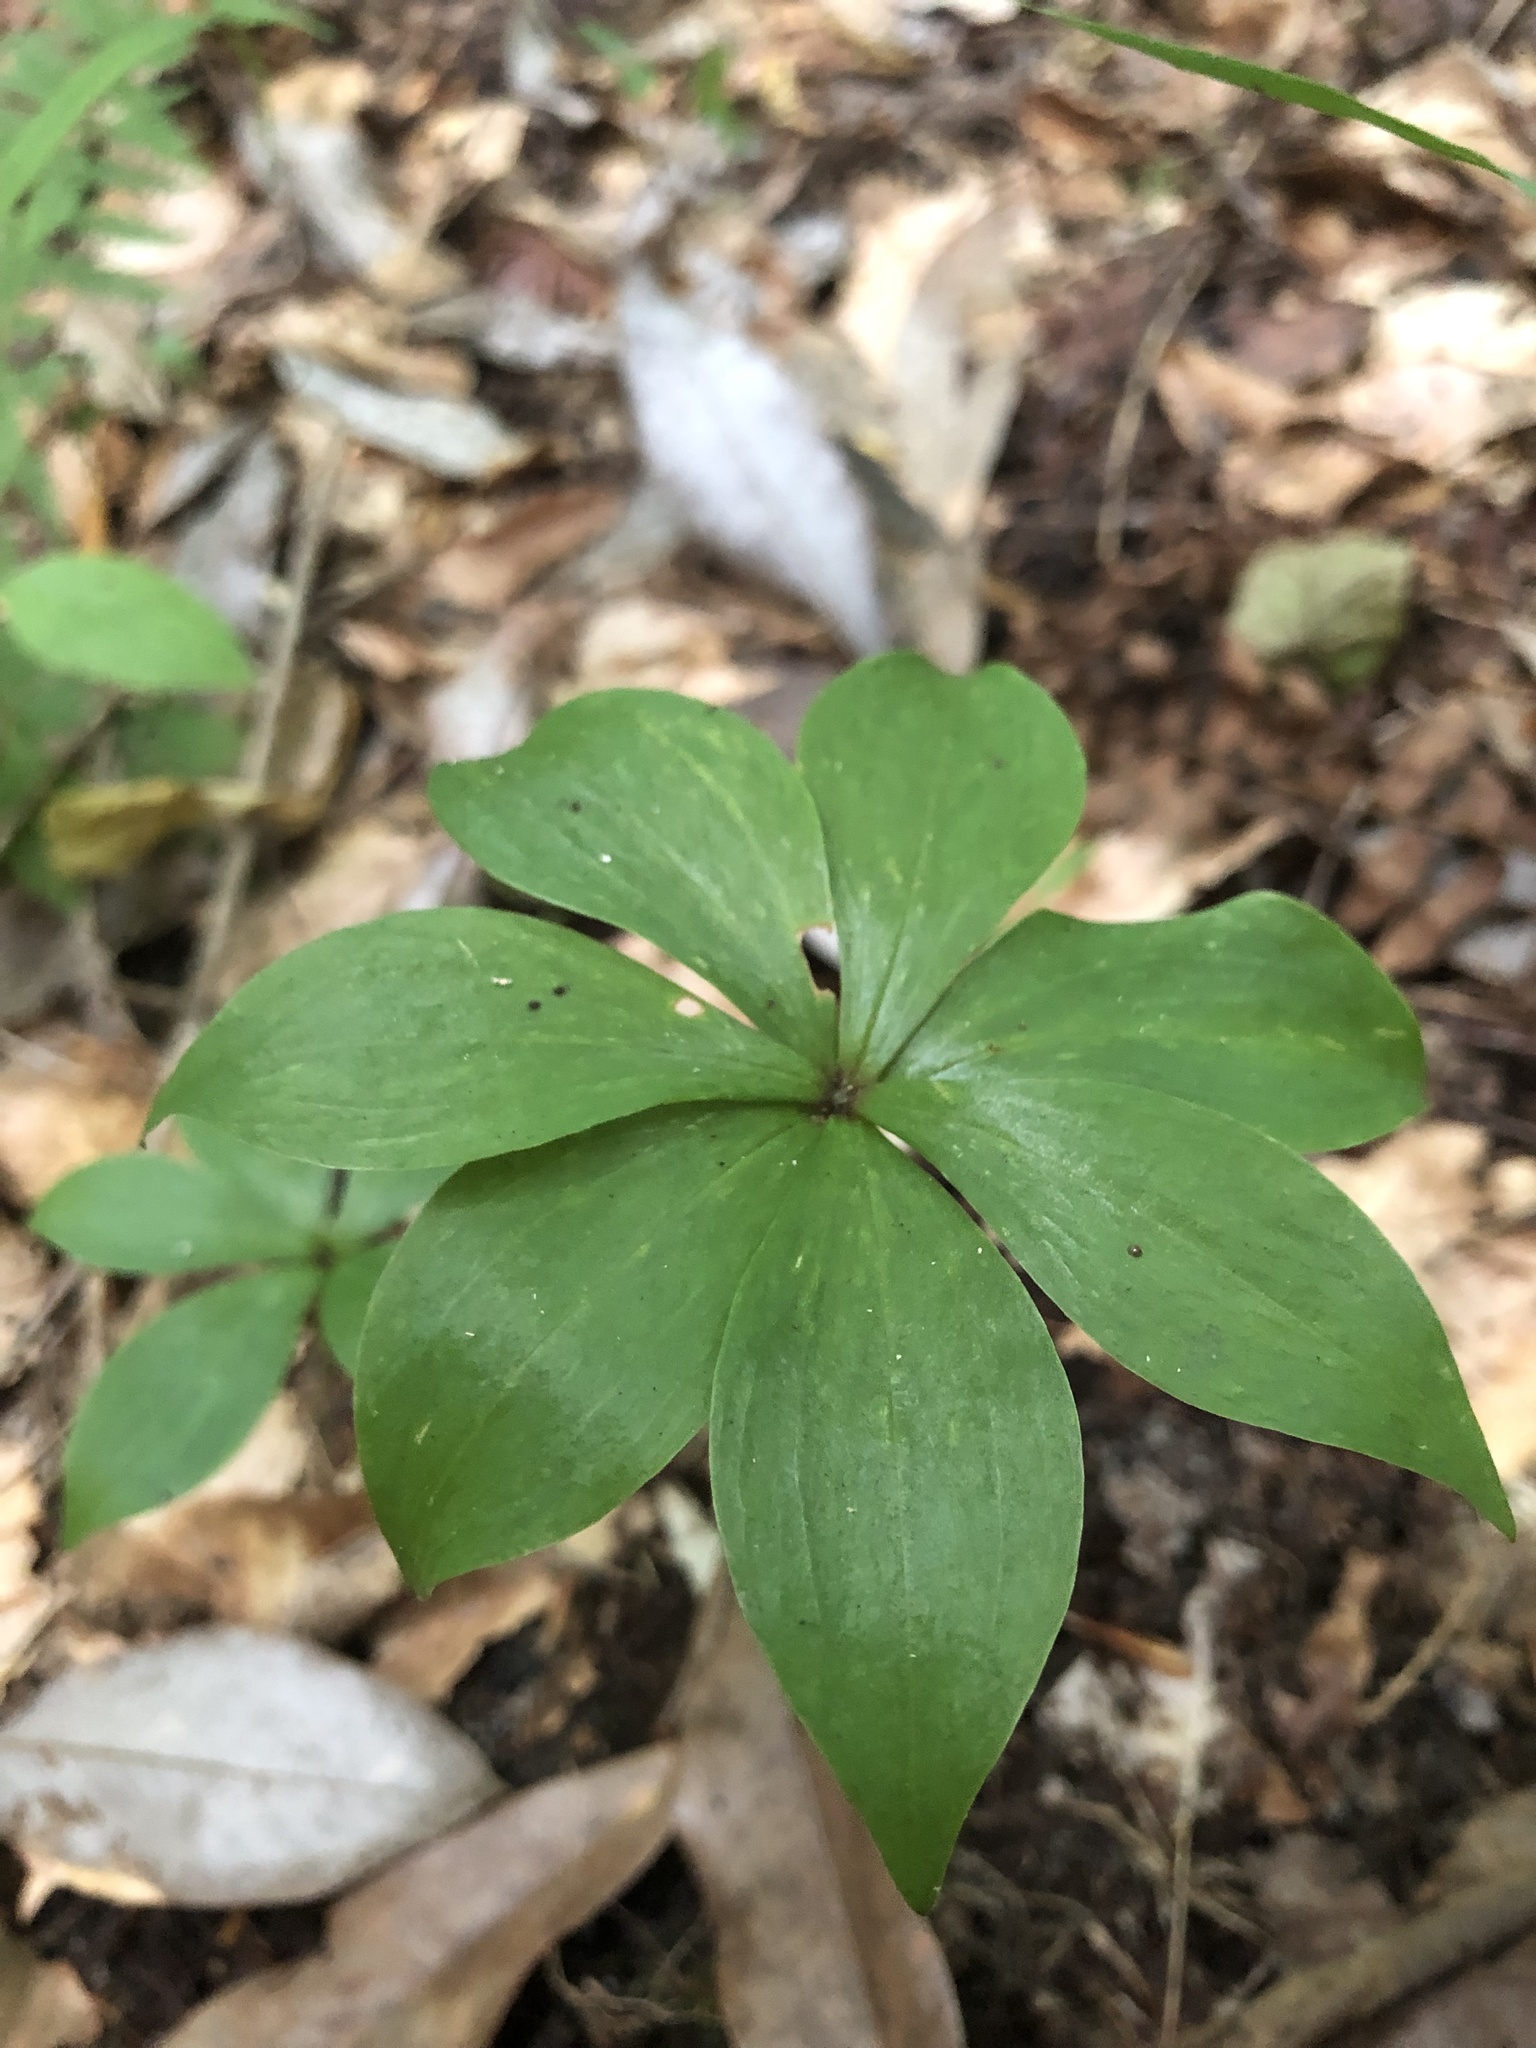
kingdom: Plantae
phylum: Tracheophyta
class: Liliopsida
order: Liliales
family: Liliaceae
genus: Medeola
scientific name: Medeola virginiana
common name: Indian cucumber-root
